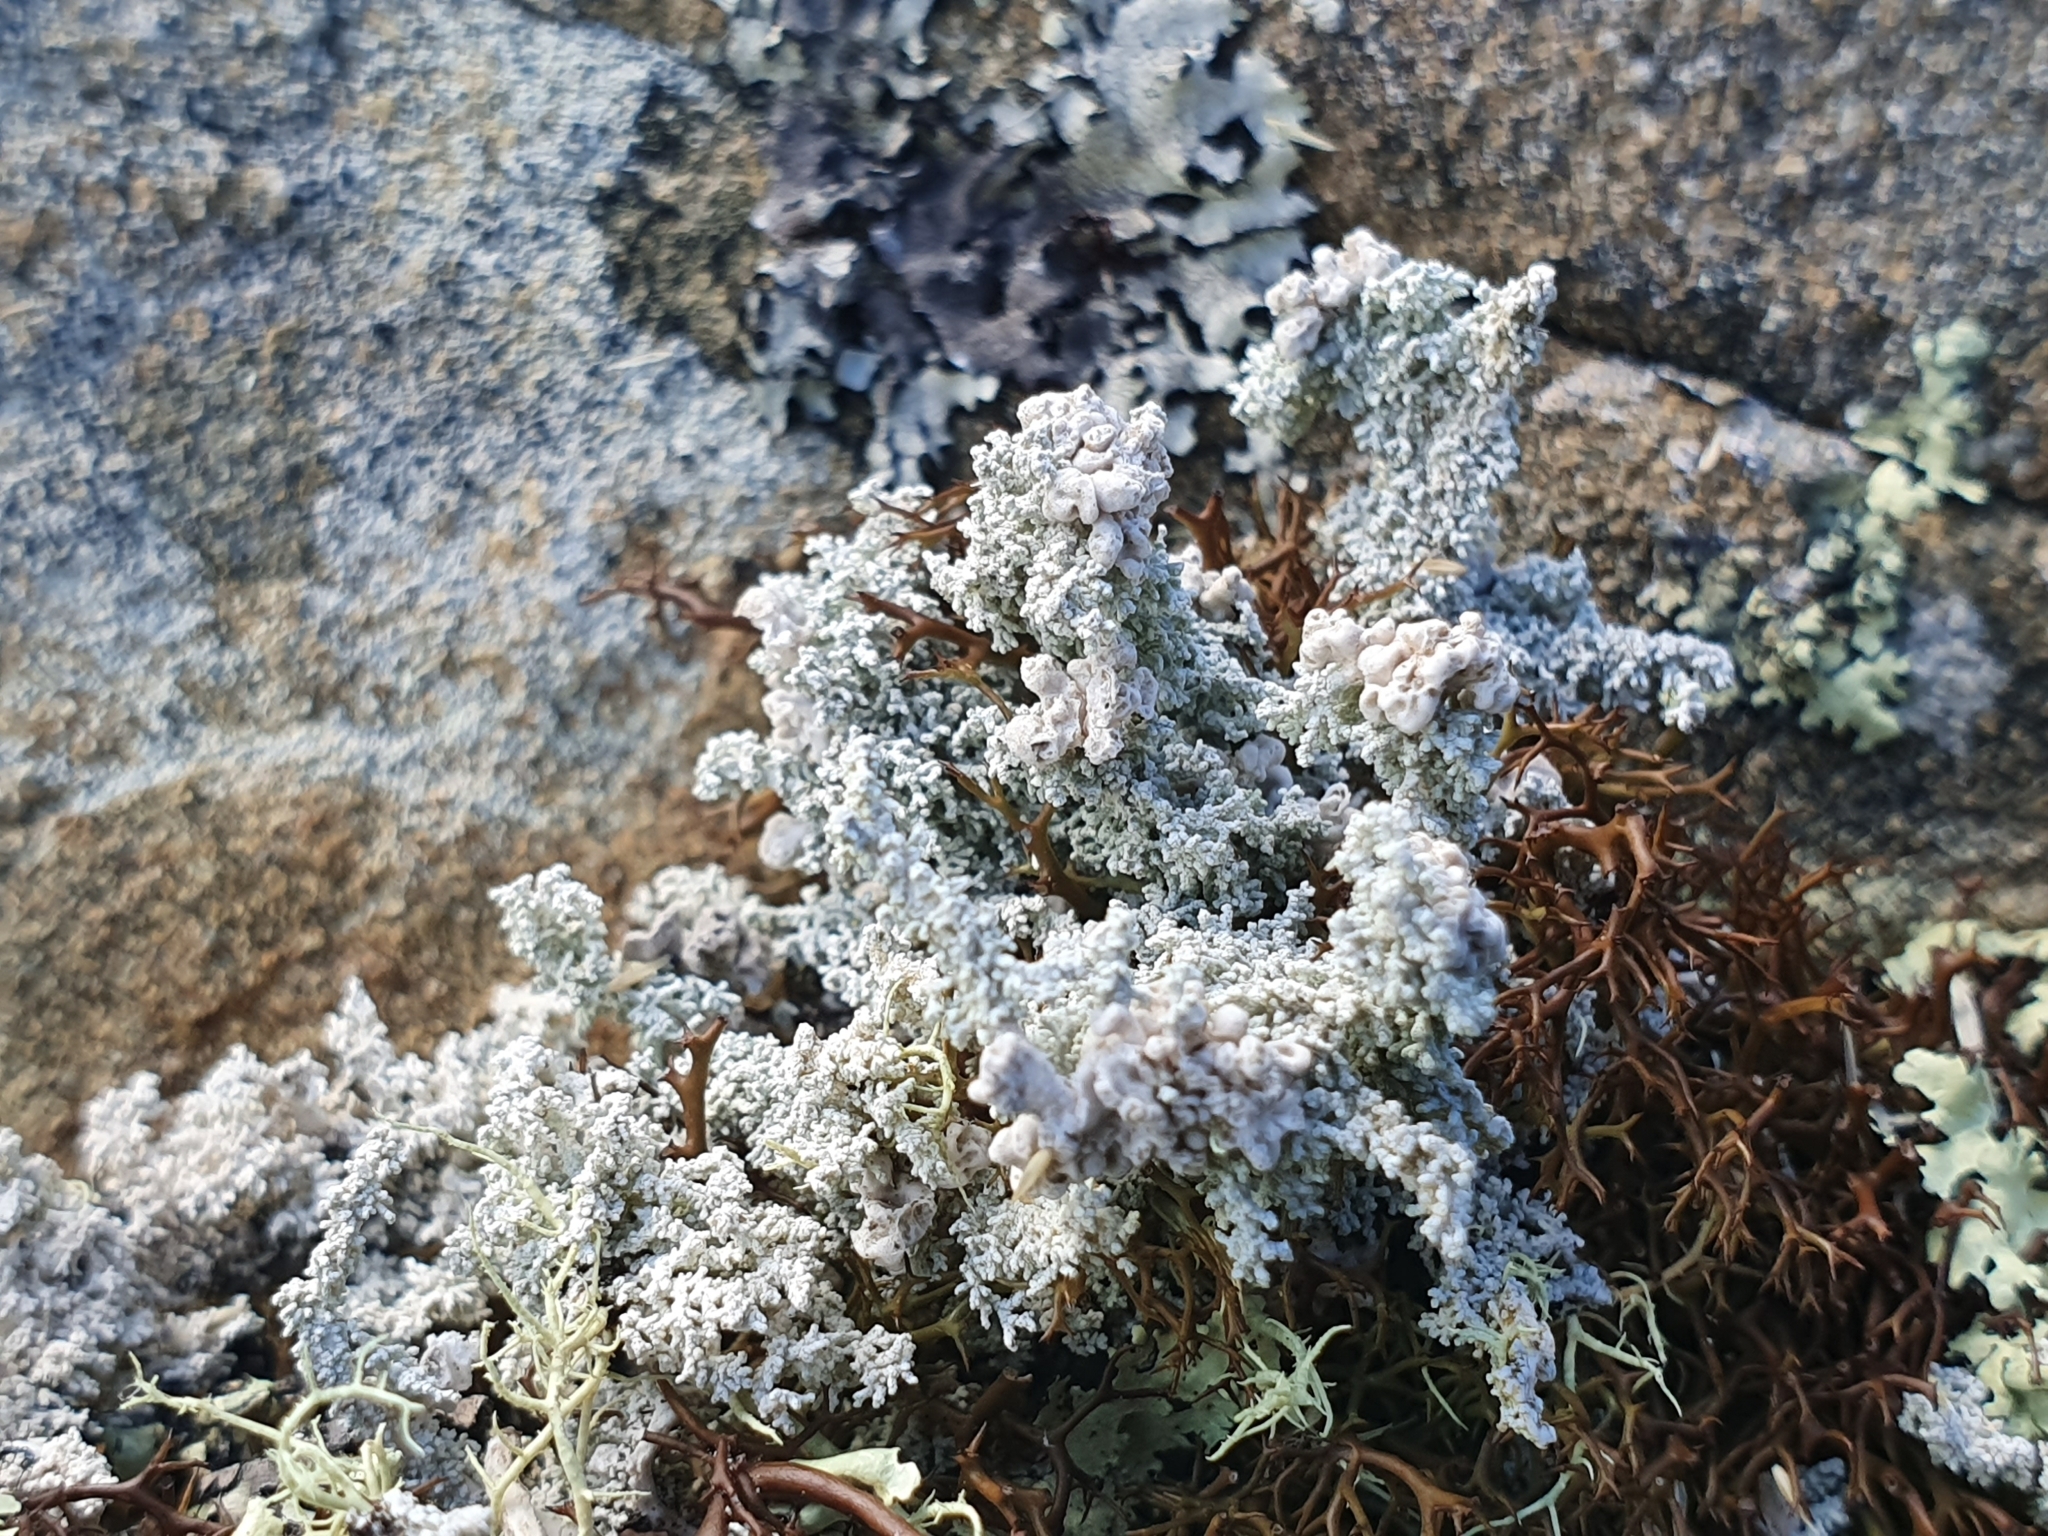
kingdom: Fungi
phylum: Ascomycota
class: Lecanoromycetes
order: Lecanorales
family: Stereocaulaceae
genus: Stereocaulon
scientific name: Stereocaulon ramulosum
